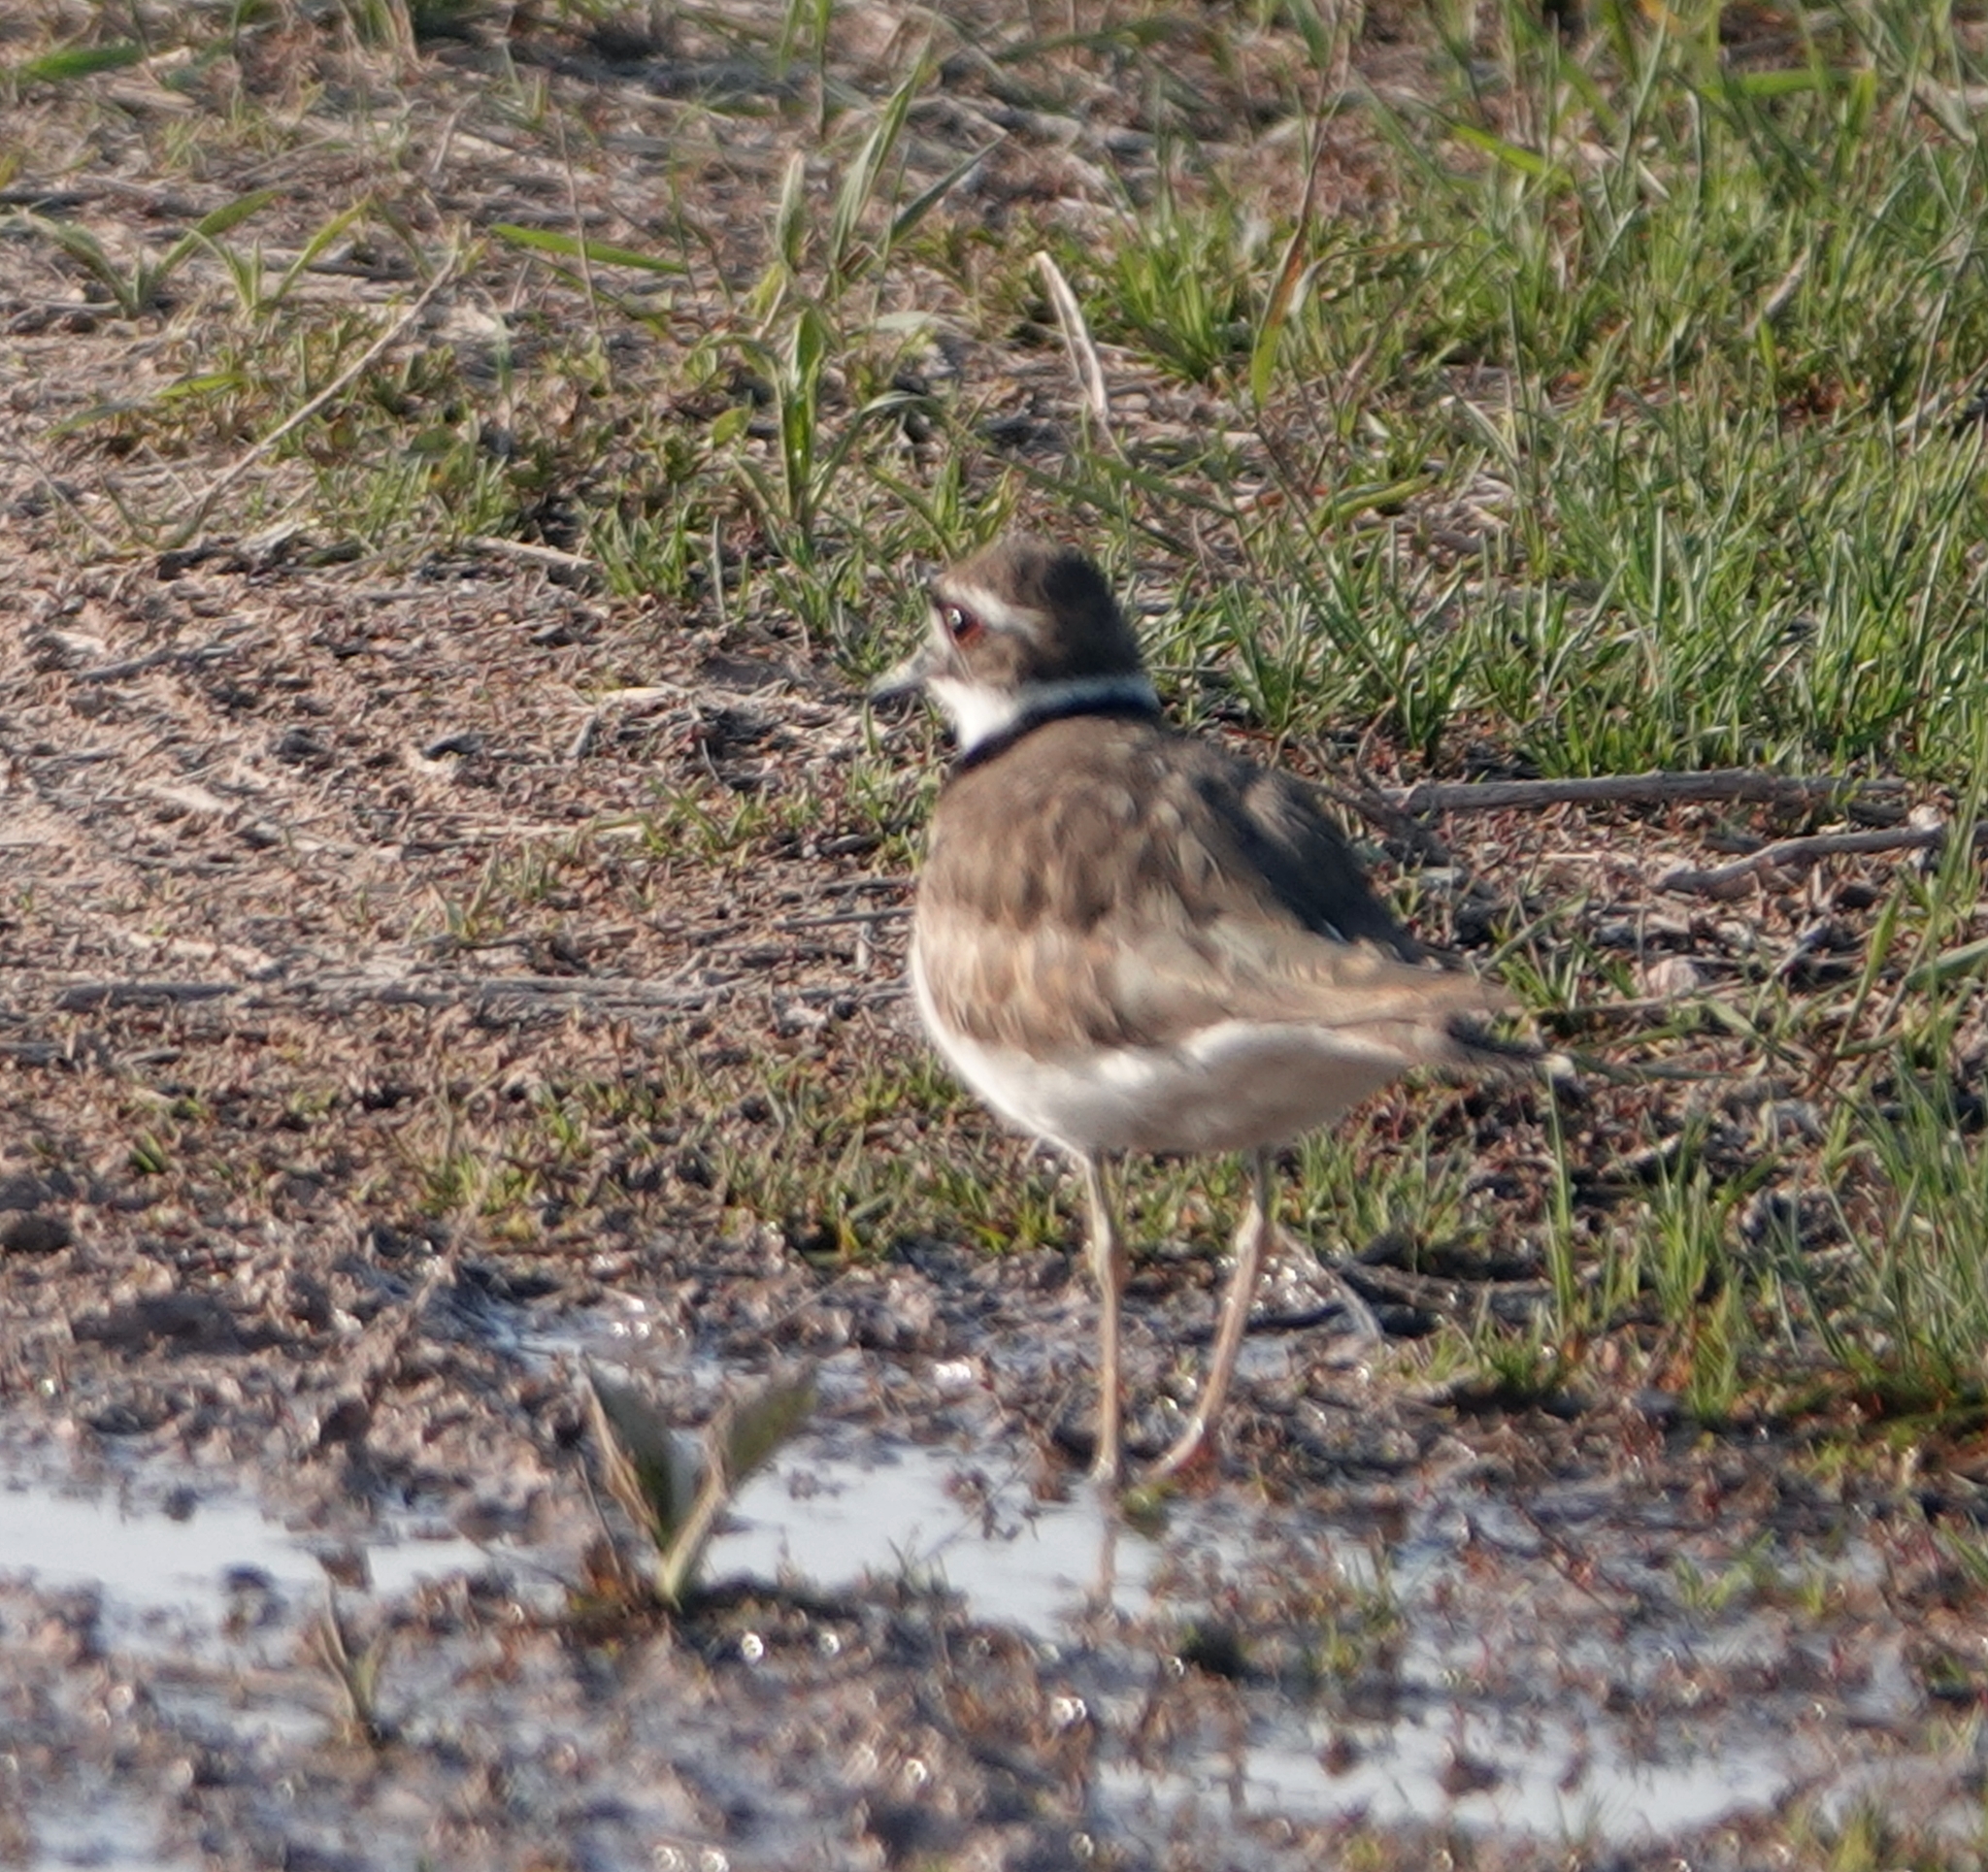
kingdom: Animalia
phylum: Chordata
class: Aves
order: Charadriiformes
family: Charadriidae
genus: Charadrius
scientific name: Charadrius vociferus
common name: Killdeer
